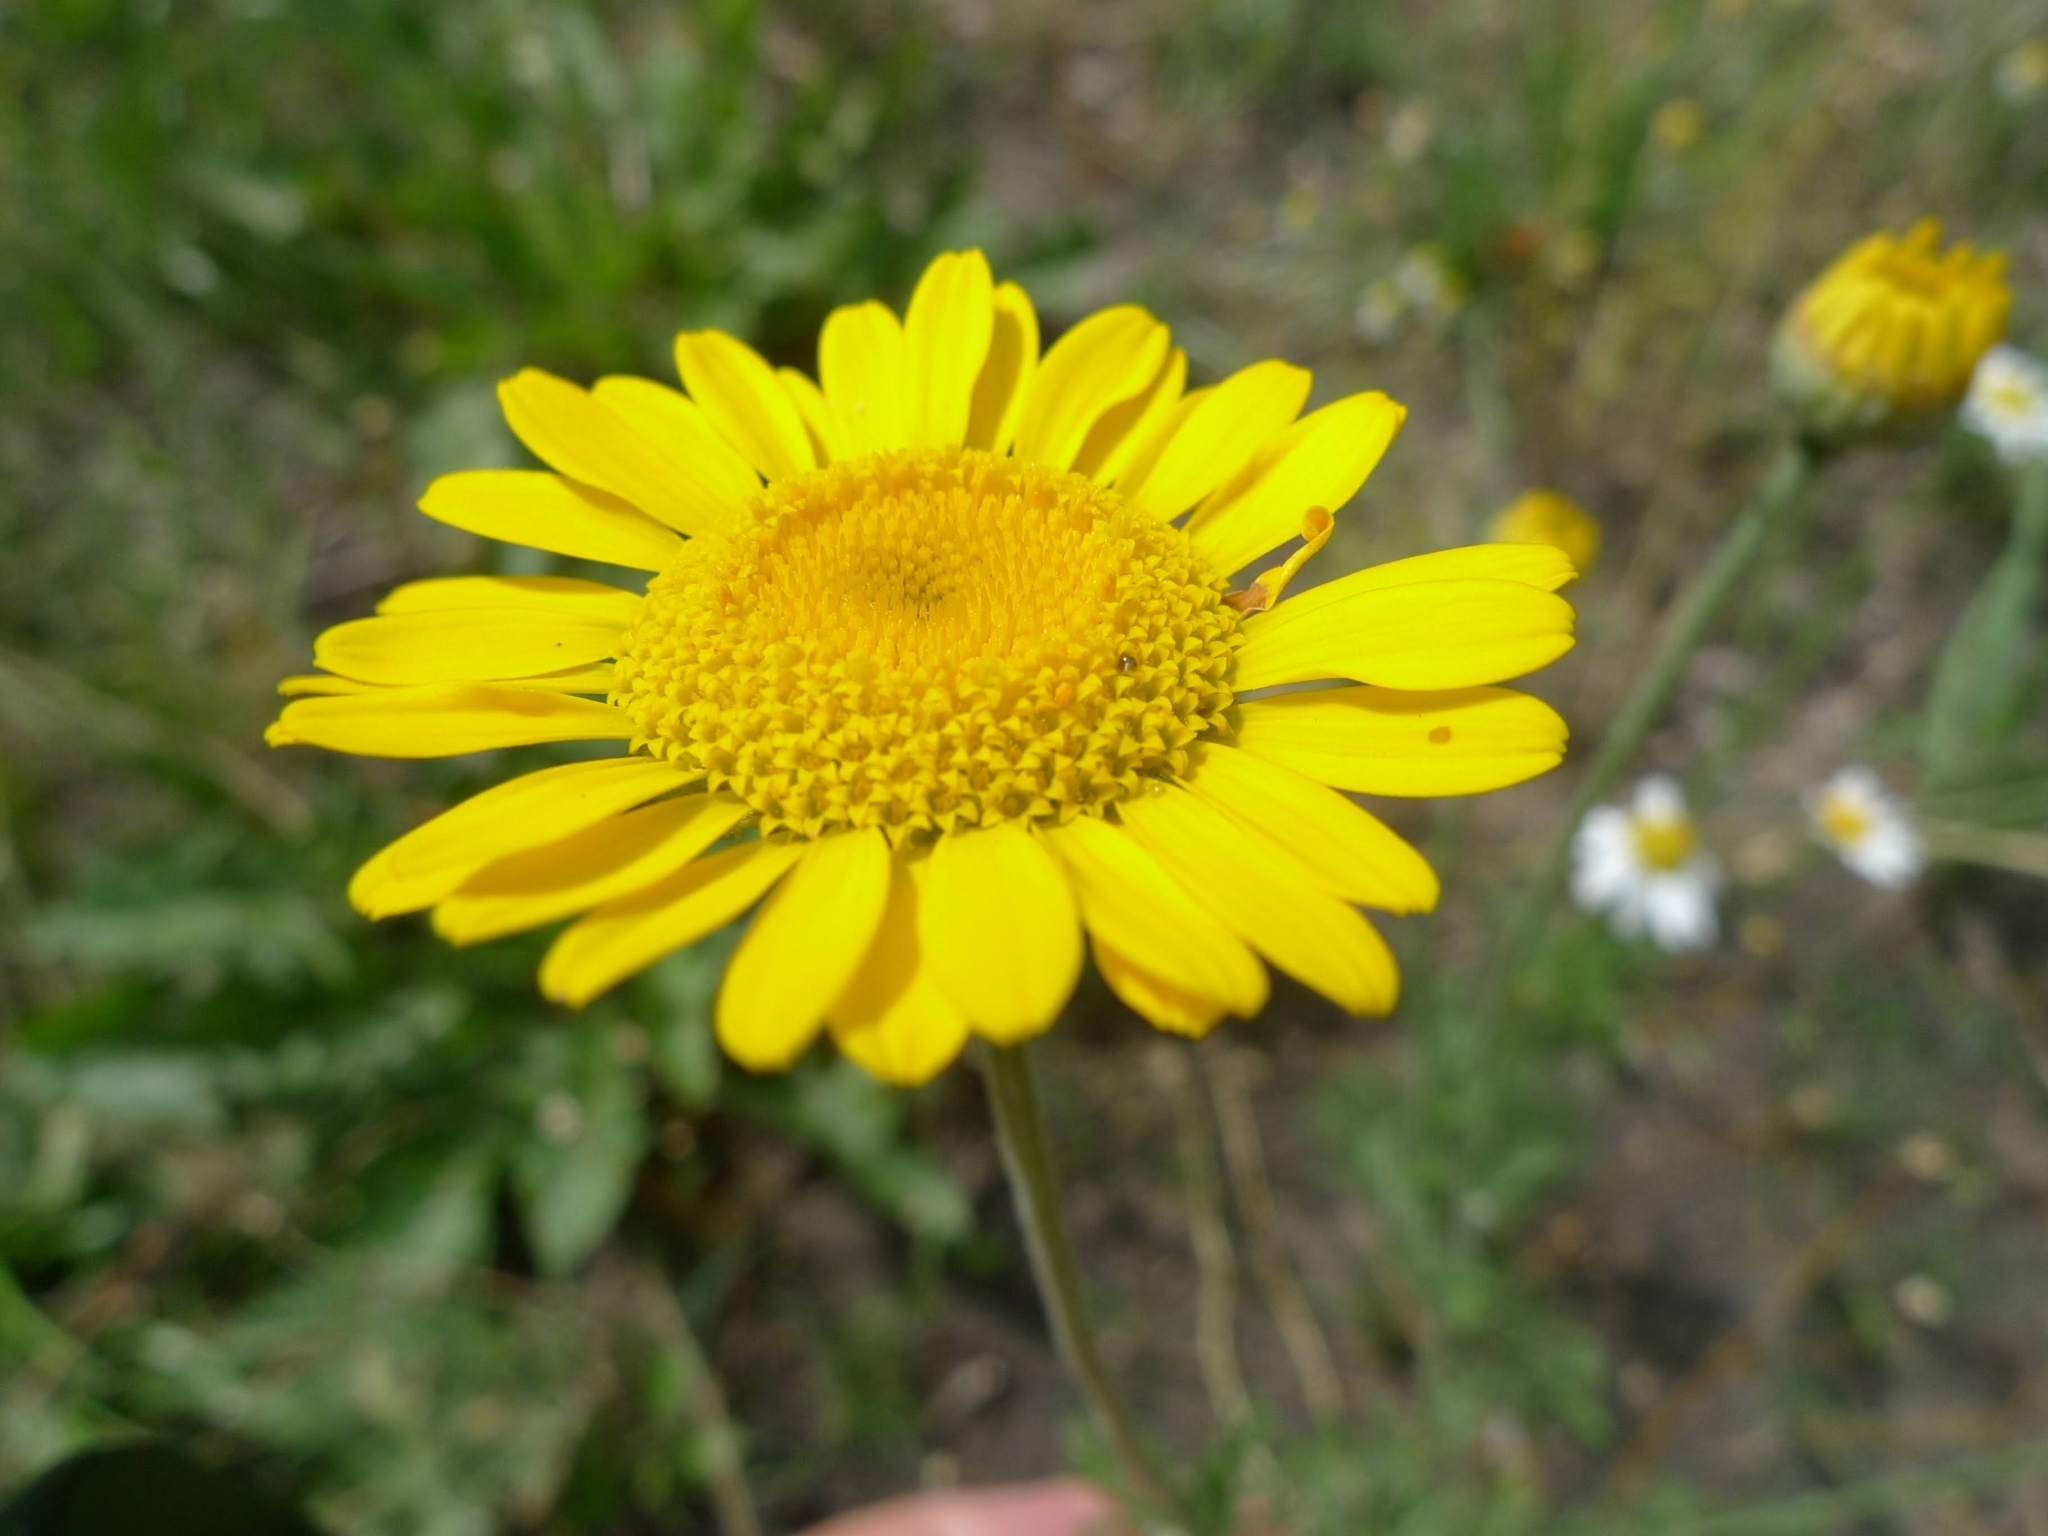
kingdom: Plantae
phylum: Tracheophyta
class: Magnoliopsida
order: Asterales
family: Asteraceae
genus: Cota
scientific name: Cota tinctoria
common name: Golden chamomile
